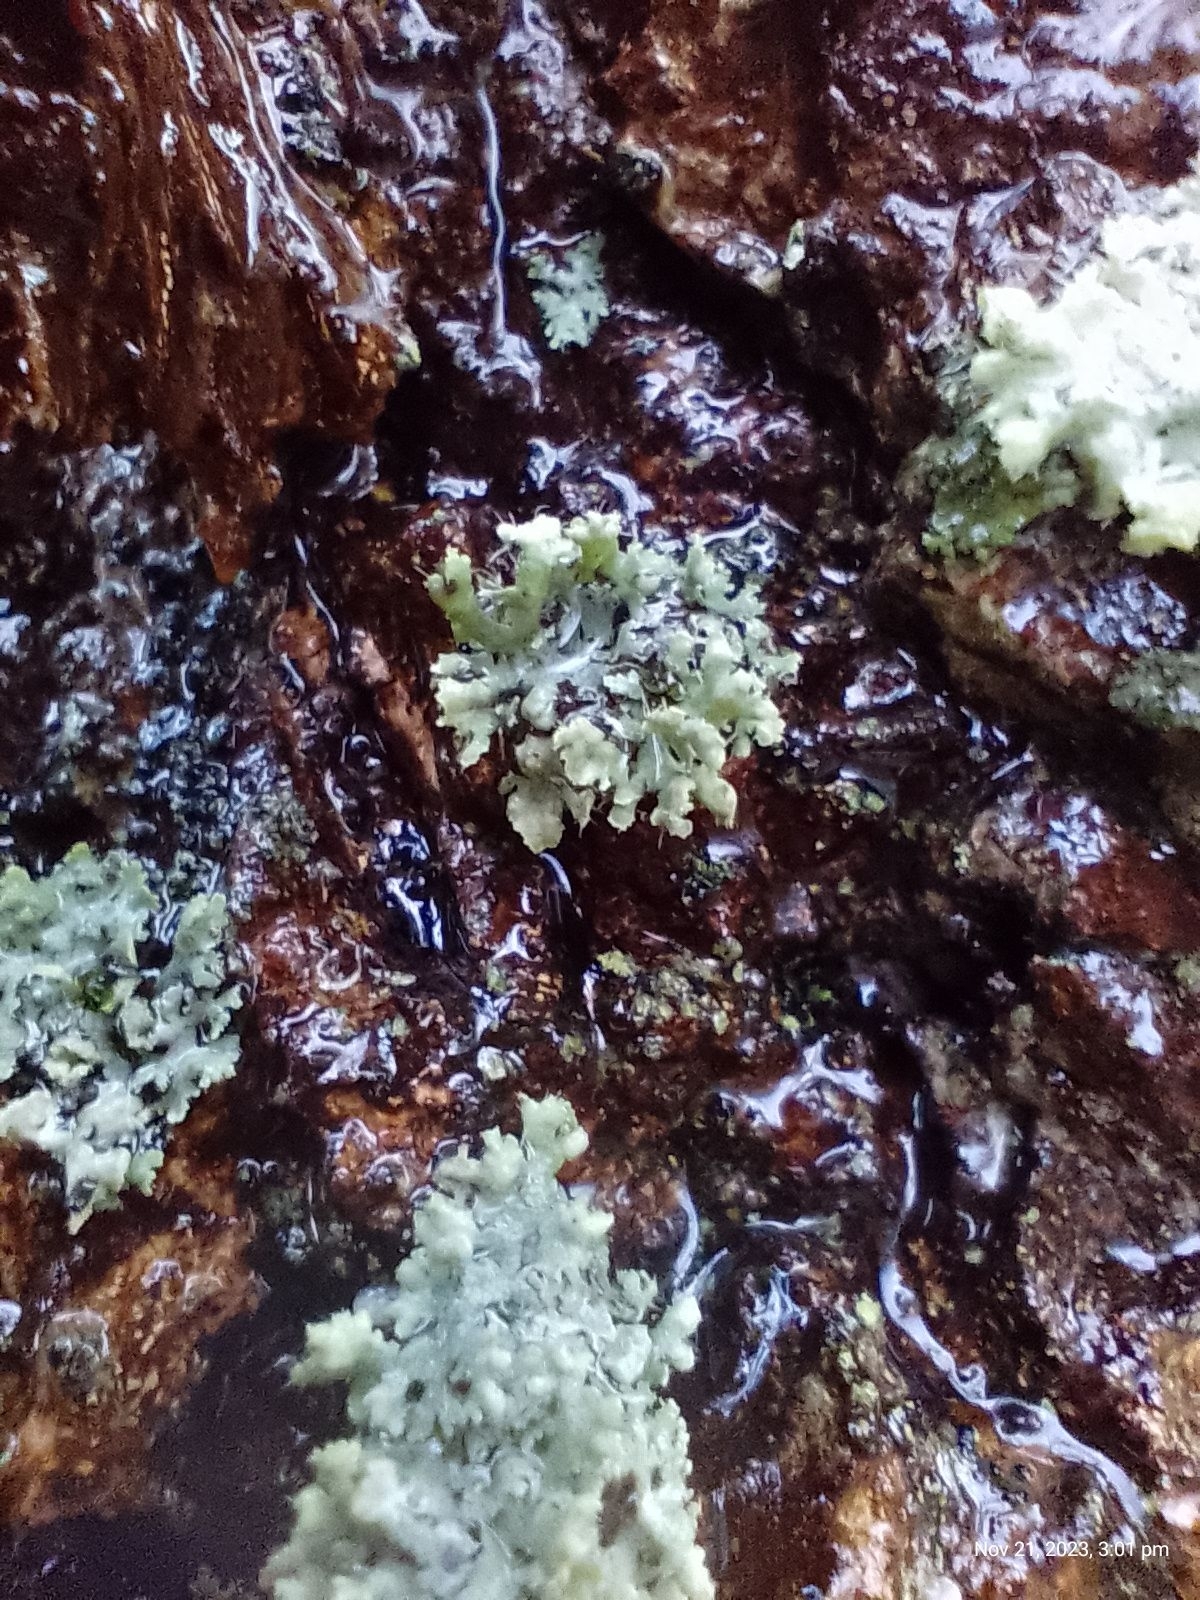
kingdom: Fungi
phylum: Ascomycota
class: Lecanoromycetes
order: Caliciales
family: Physciaceae
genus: Physcia
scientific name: Physcia adscendens
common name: Hooded rosette lichen
